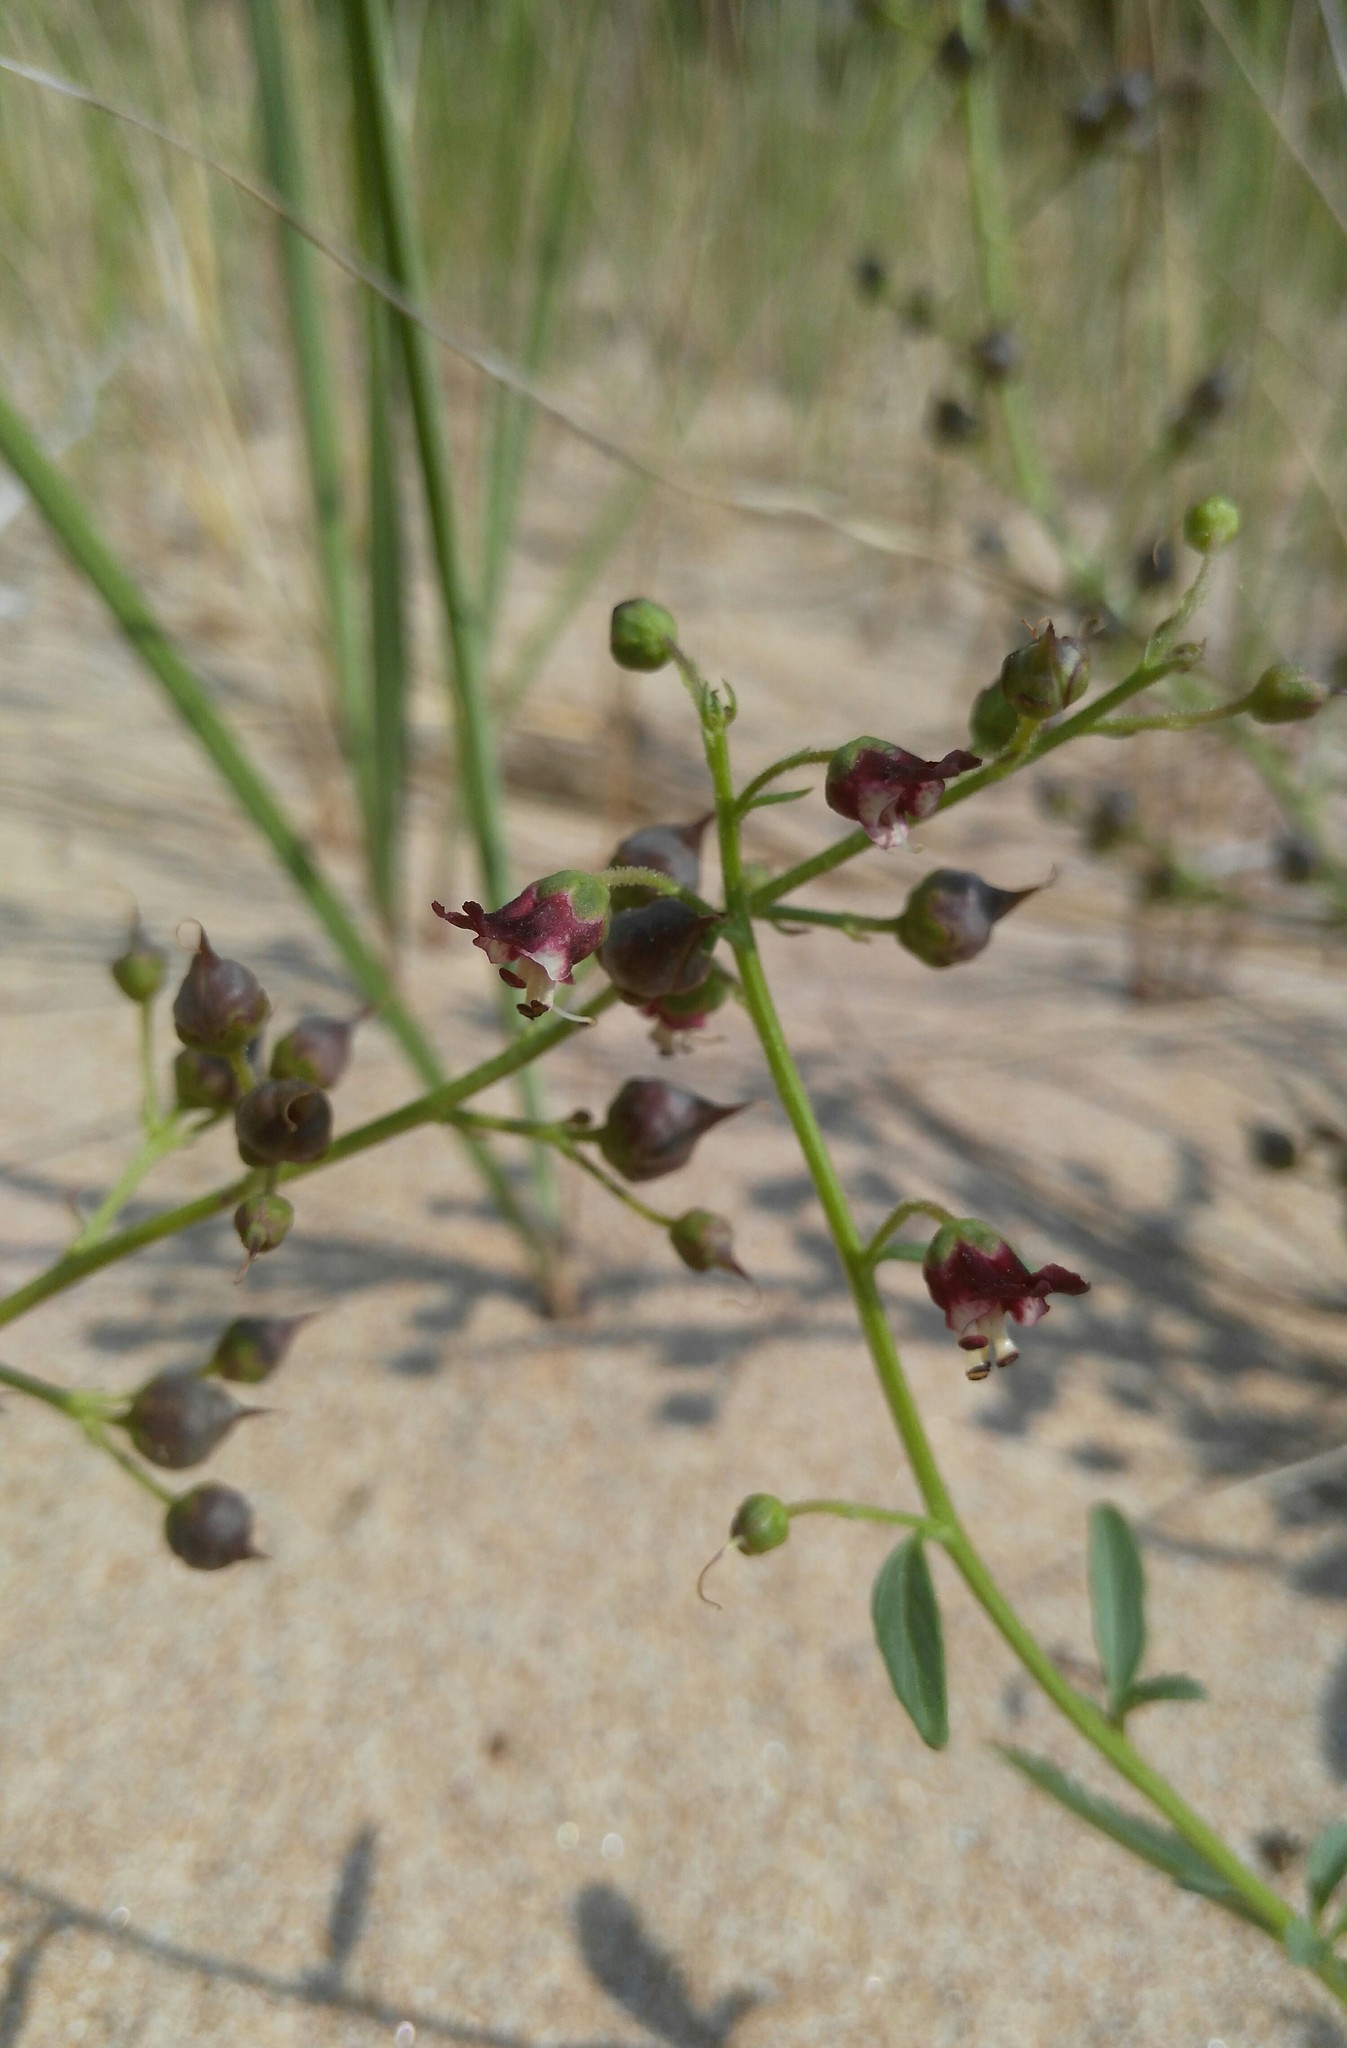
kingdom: Plantae
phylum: Tracheophyta
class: Magnoliopsida
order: Lamiales
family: Scrophulariaceae
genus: Scrophularia
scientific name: Scrophularia incisa
